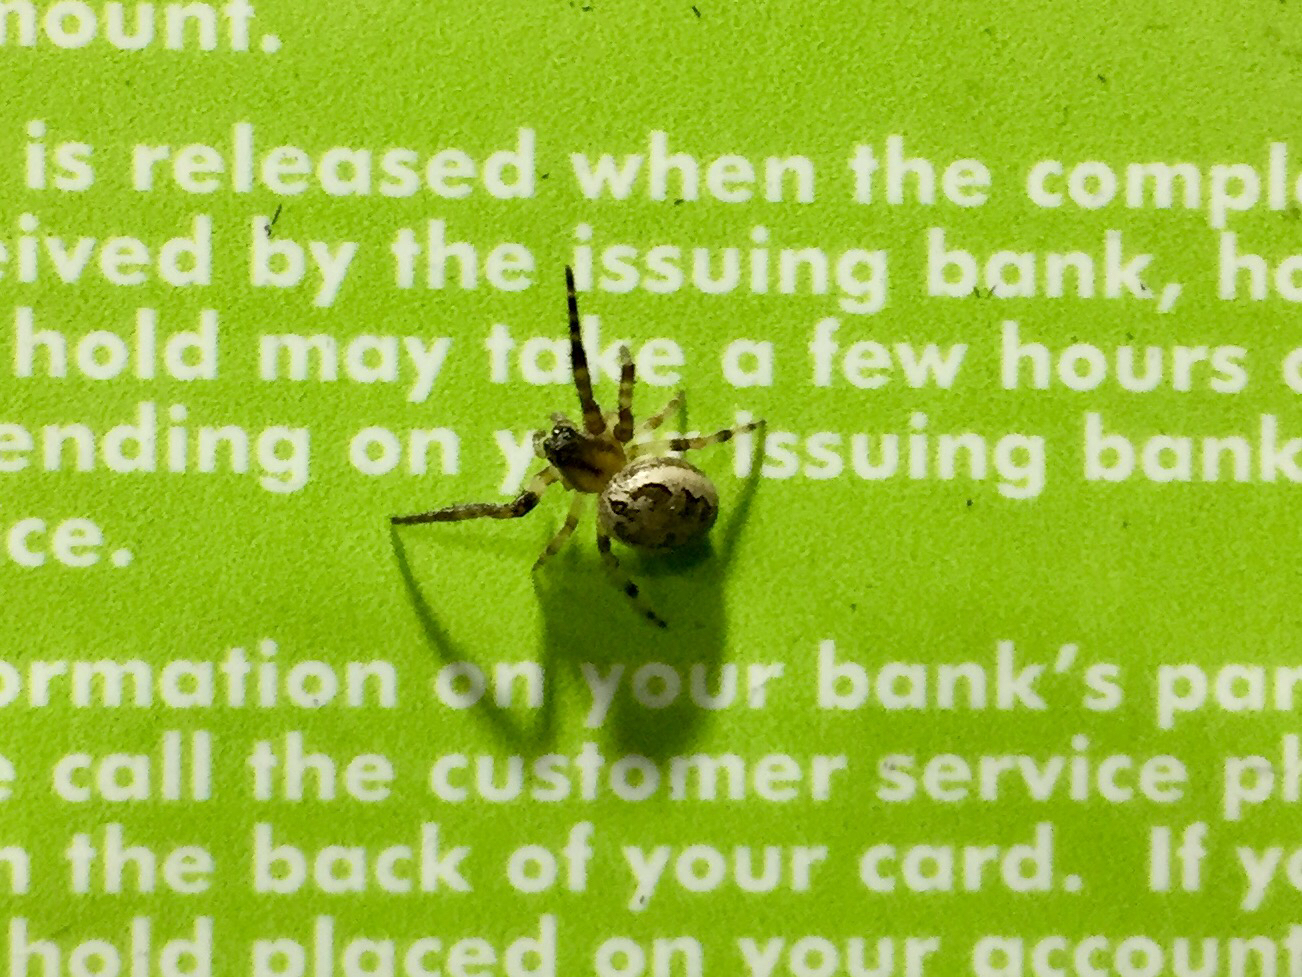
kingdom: Animalia
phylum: Arthropoda
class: Arachnida
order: Araneae
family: Araneidae
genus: Larinioides
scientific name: Larinioides cornutus
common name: Furrow orbweaver
